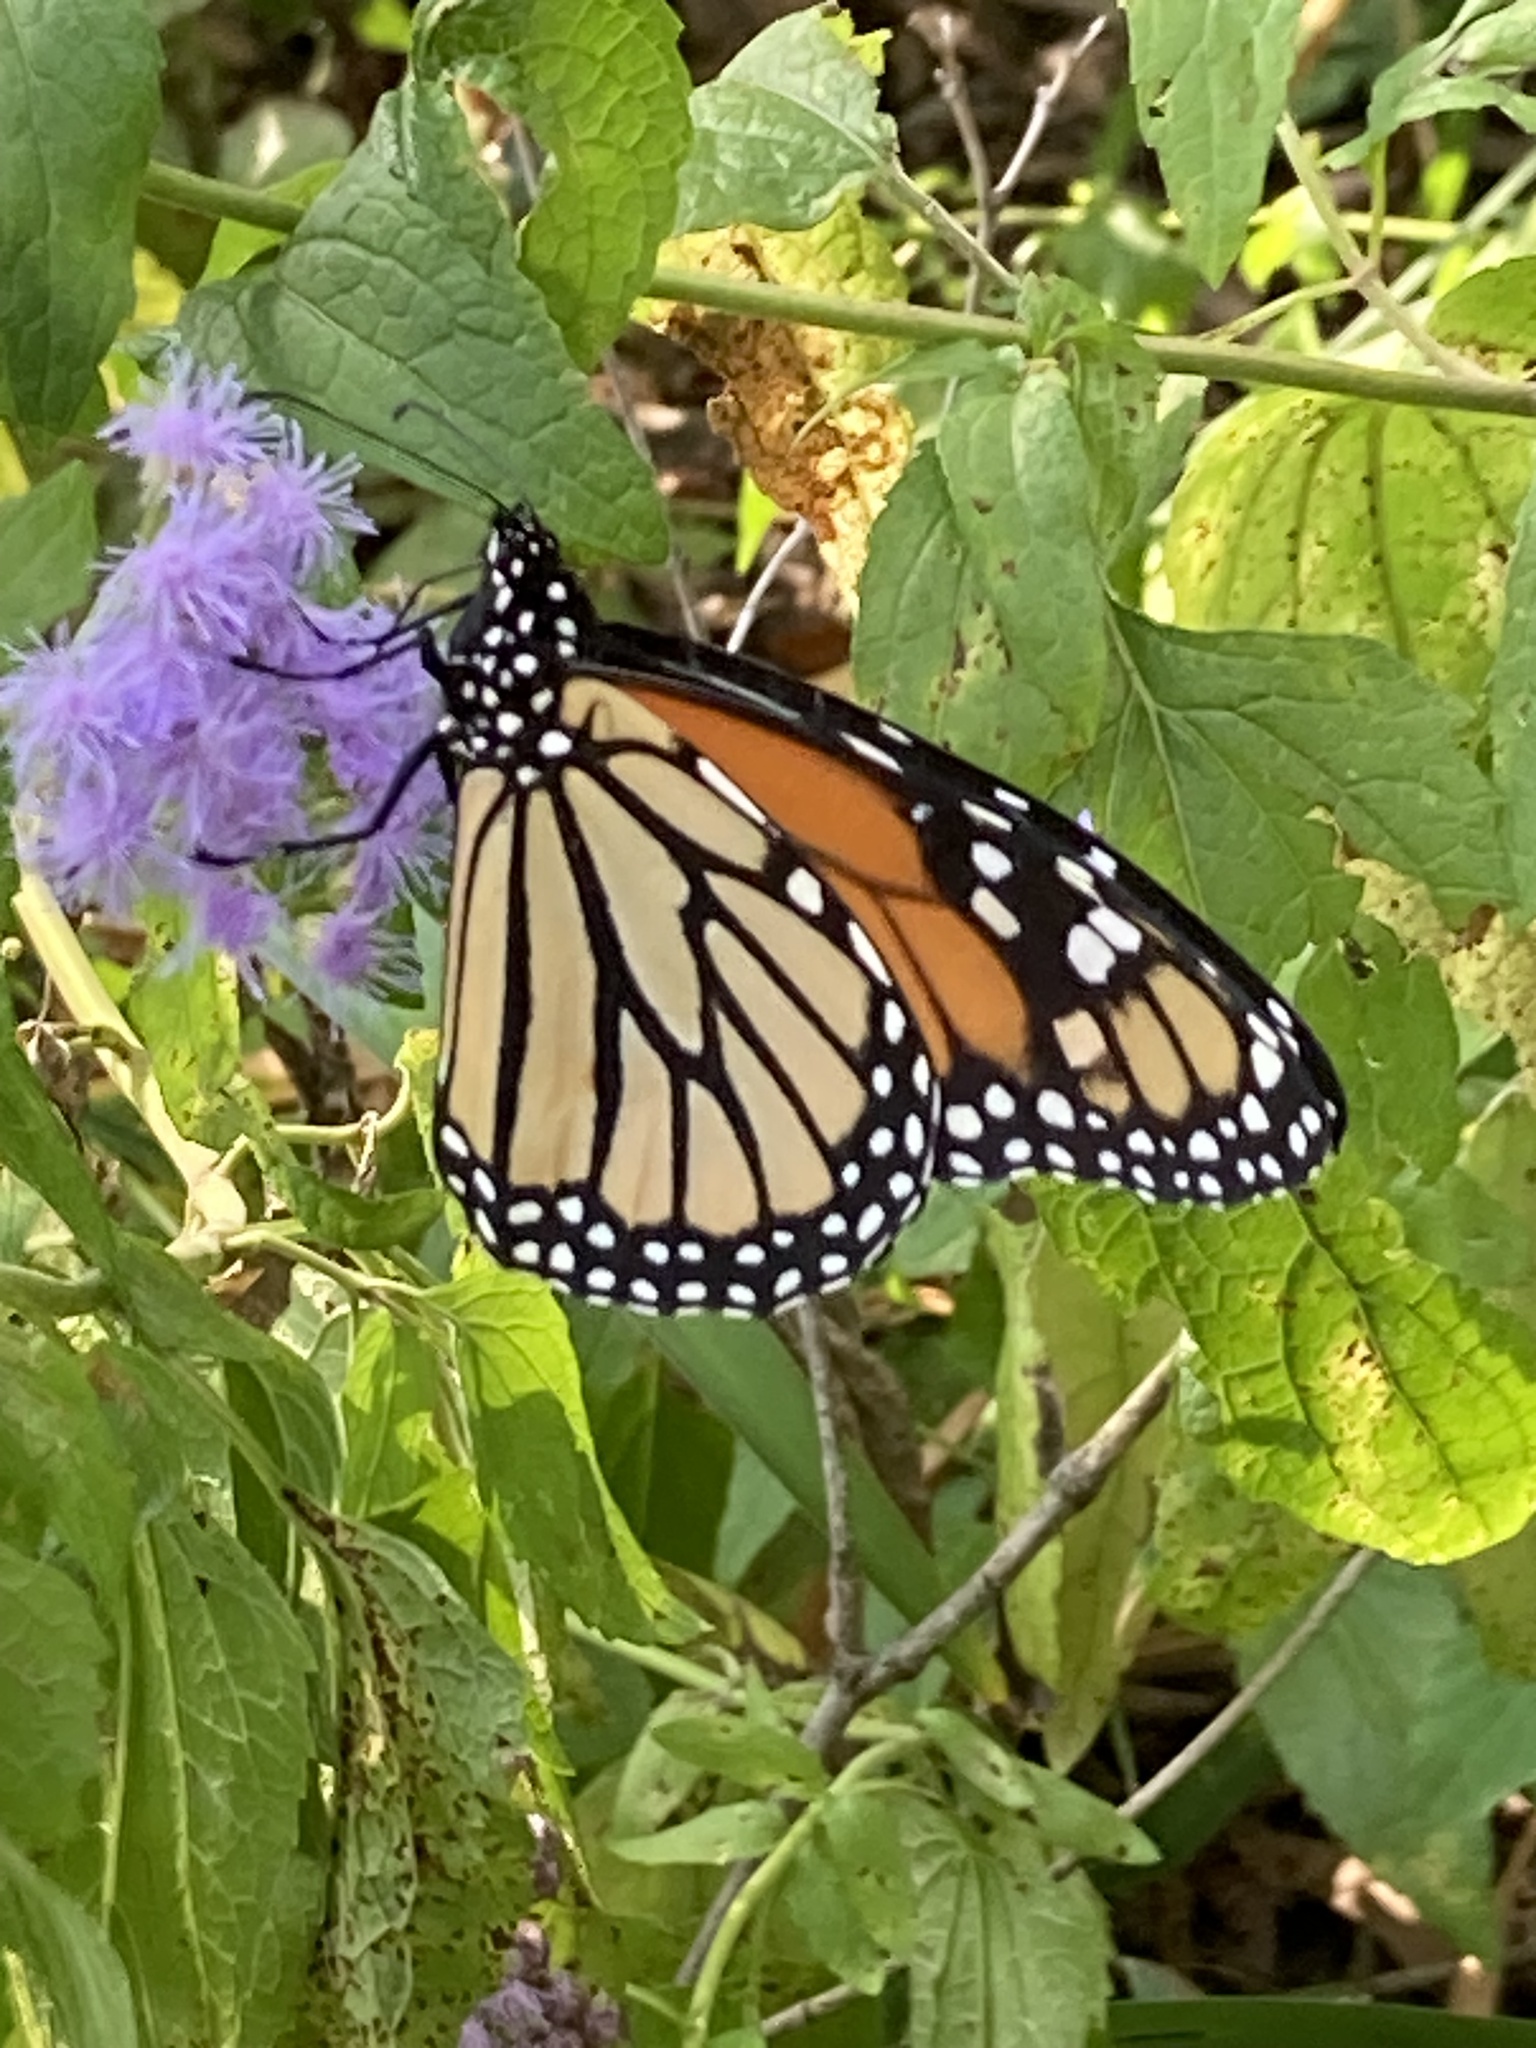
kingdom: Animalia
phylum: Arthropoda
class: Insecta
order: Lepidoptera
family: Nymphalidae
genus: Danaus
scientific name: Danaus plexippus
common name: Monarch
